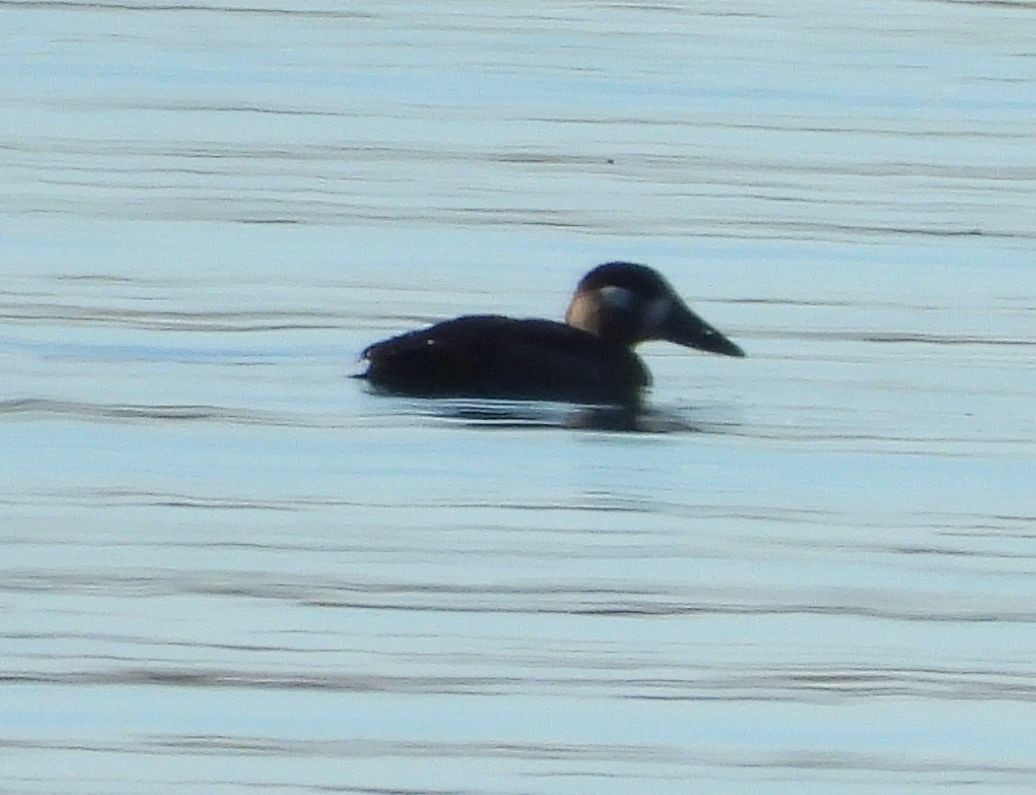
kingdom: Animalia
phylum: Chordata
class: Aves
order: Anseriformes
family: Anatidae
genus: Melanitta
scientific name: Melanitta perspicillata
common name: Surf scoter
